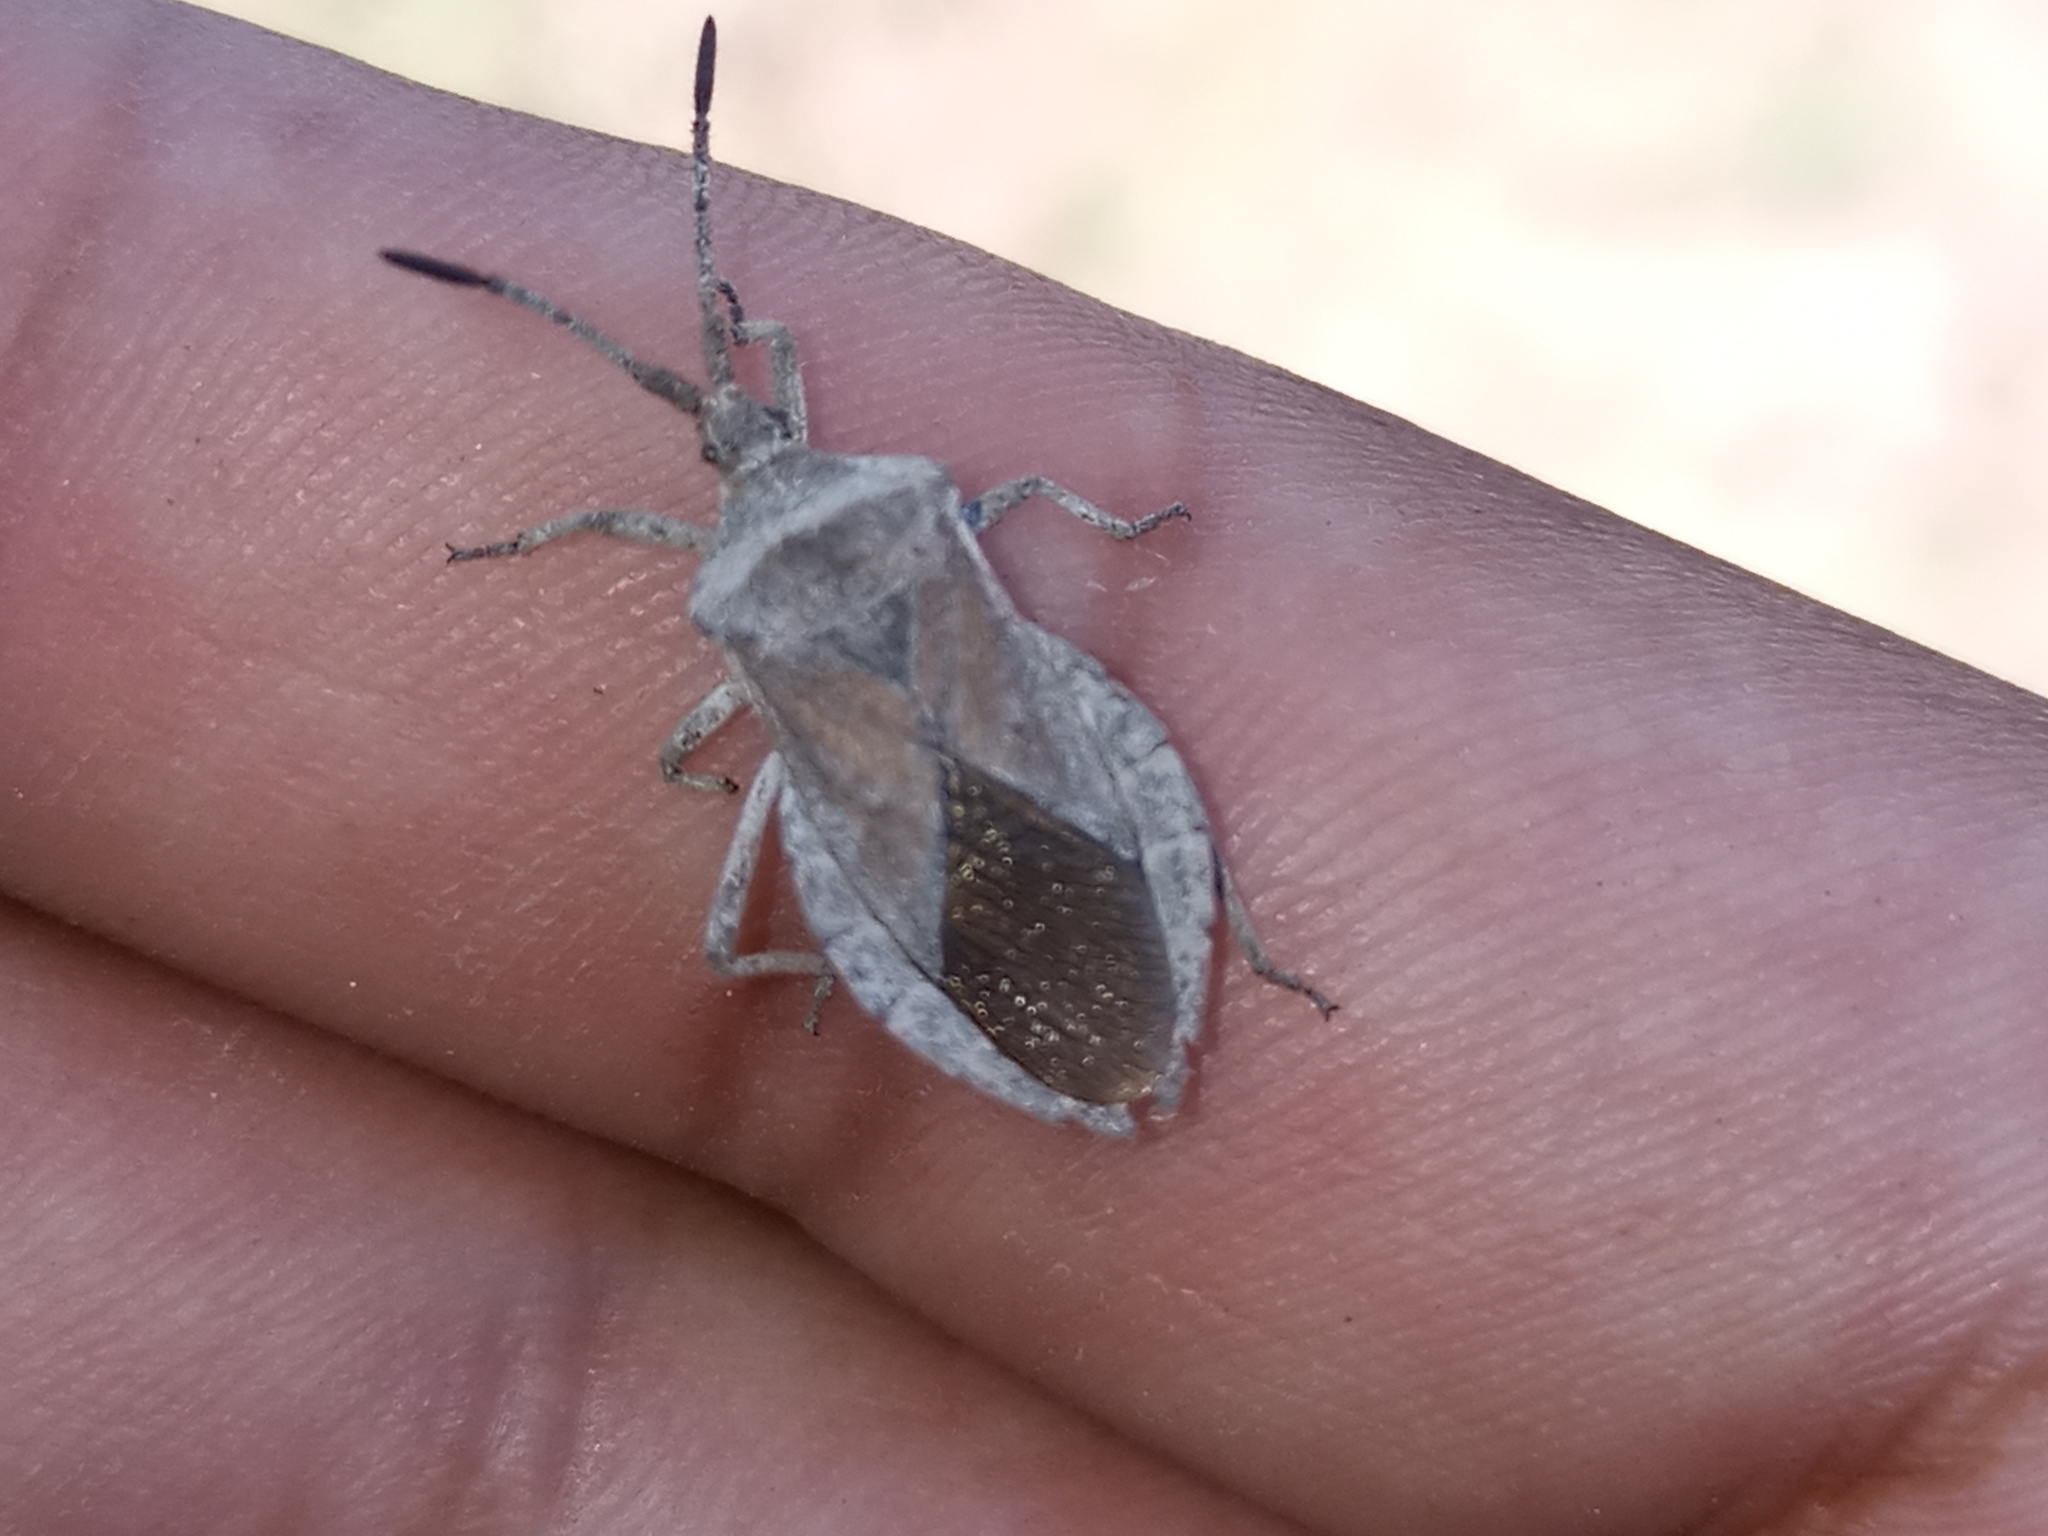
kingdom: Animalia
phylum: Arthropoda
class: Insecta
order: Hemiptera
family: Coreidae
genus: Spartocera
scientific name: Spartocera bruchii
